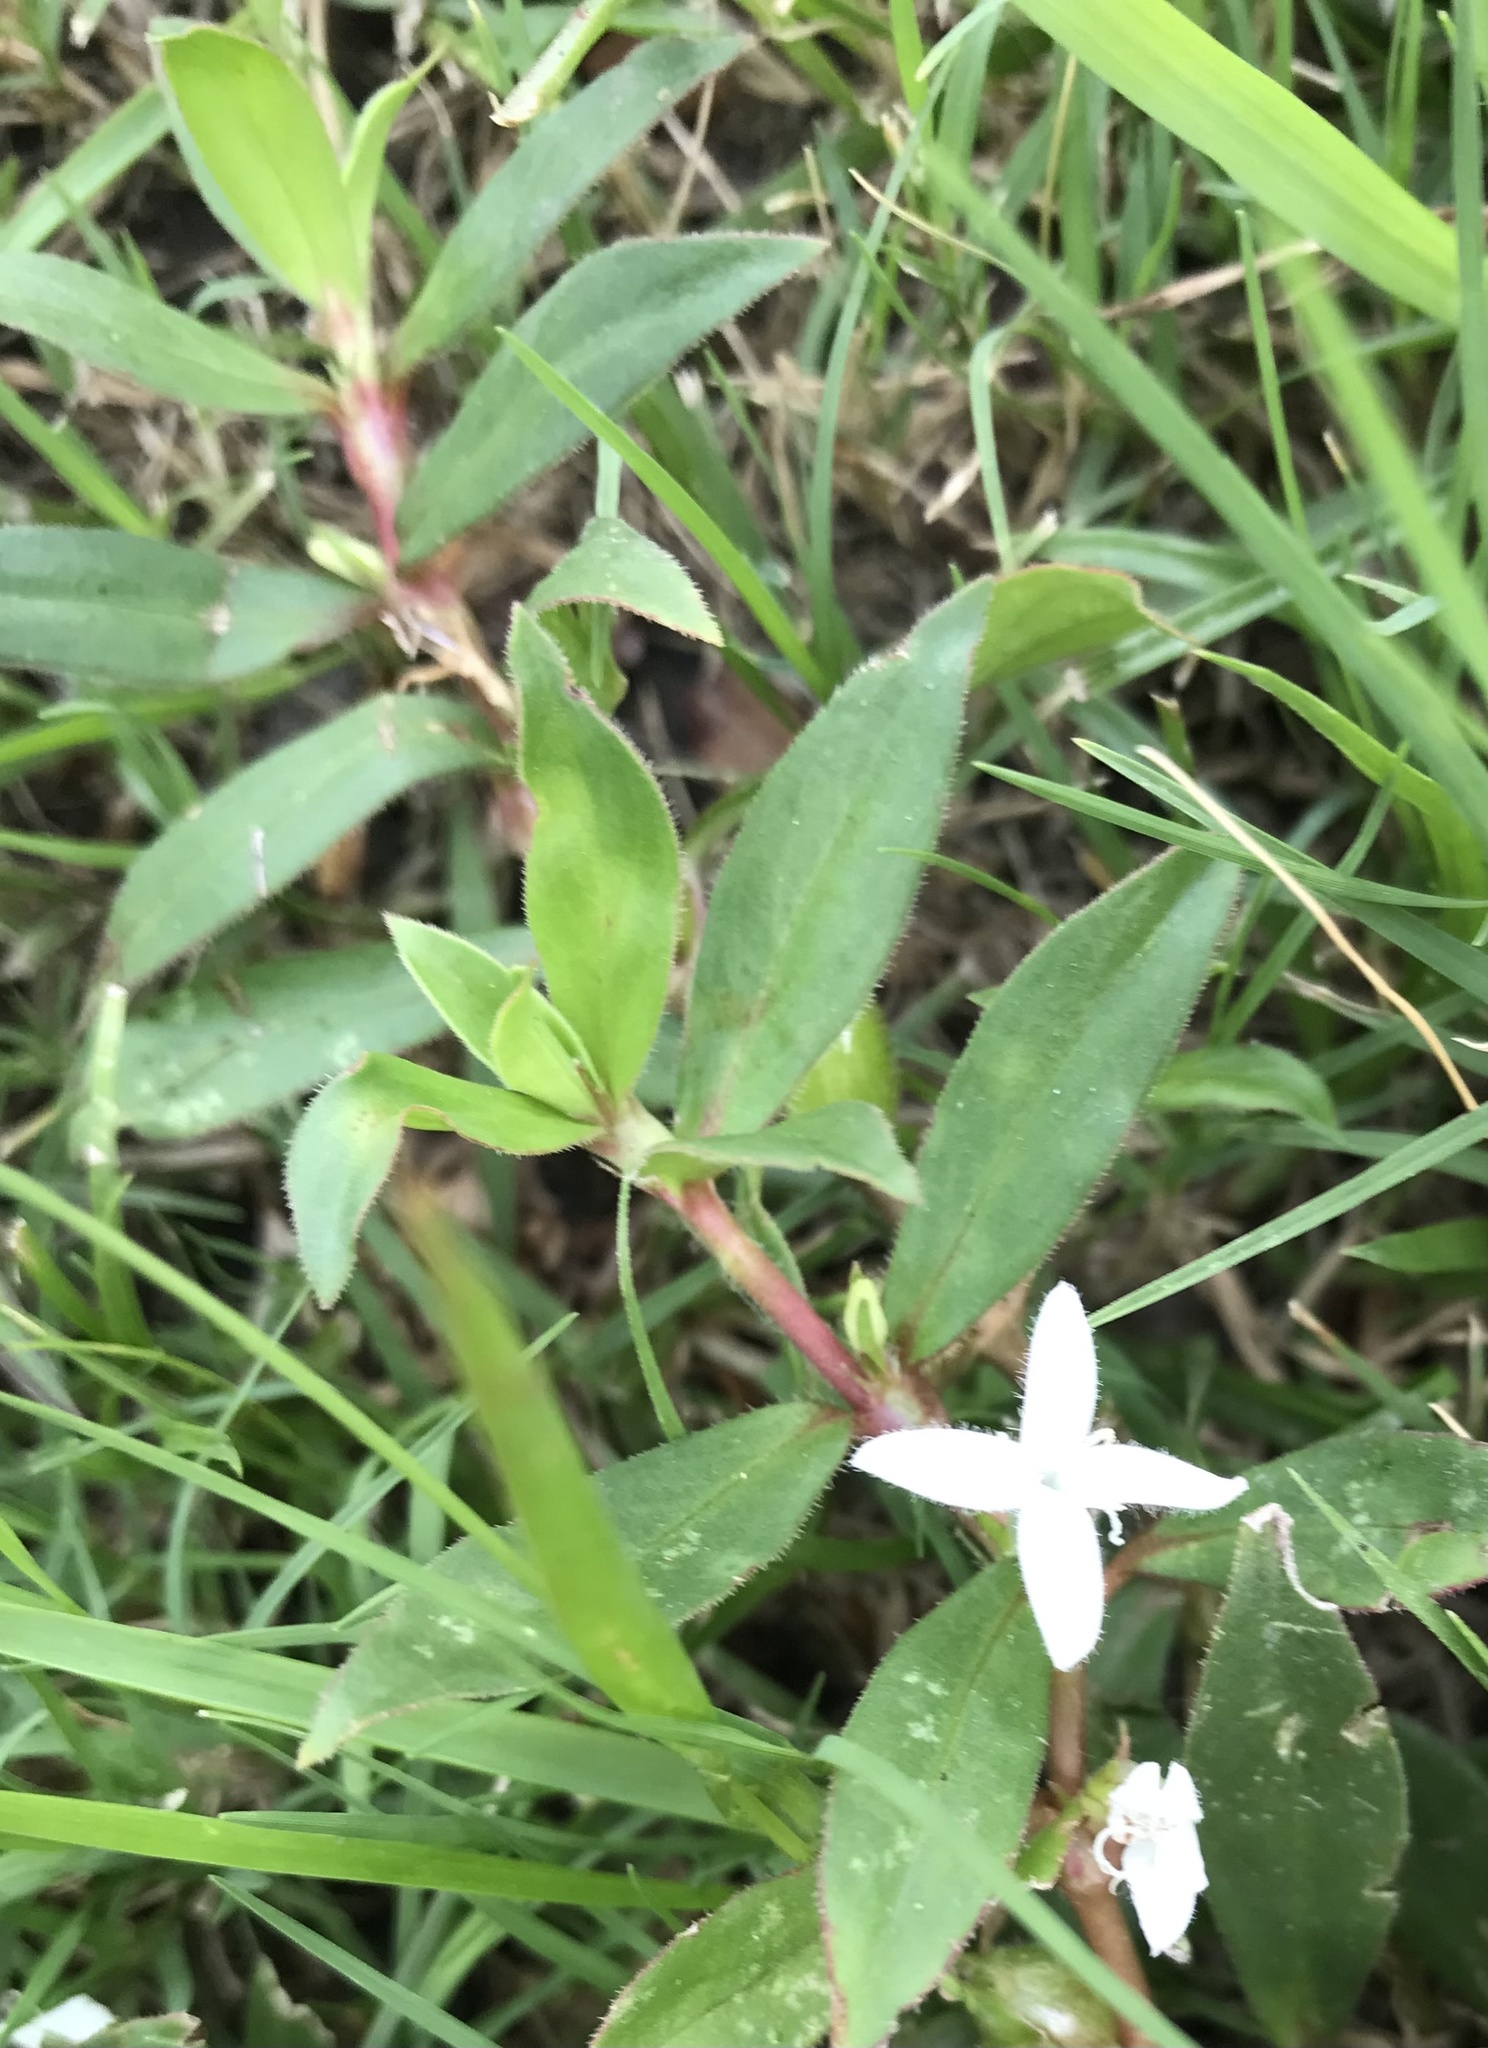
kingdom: Plantae
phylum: Tracheophyta
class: Magnoliopsida
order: Gentianales
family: Rubiaceae
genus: Diodia
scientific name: Diodia virginiana
